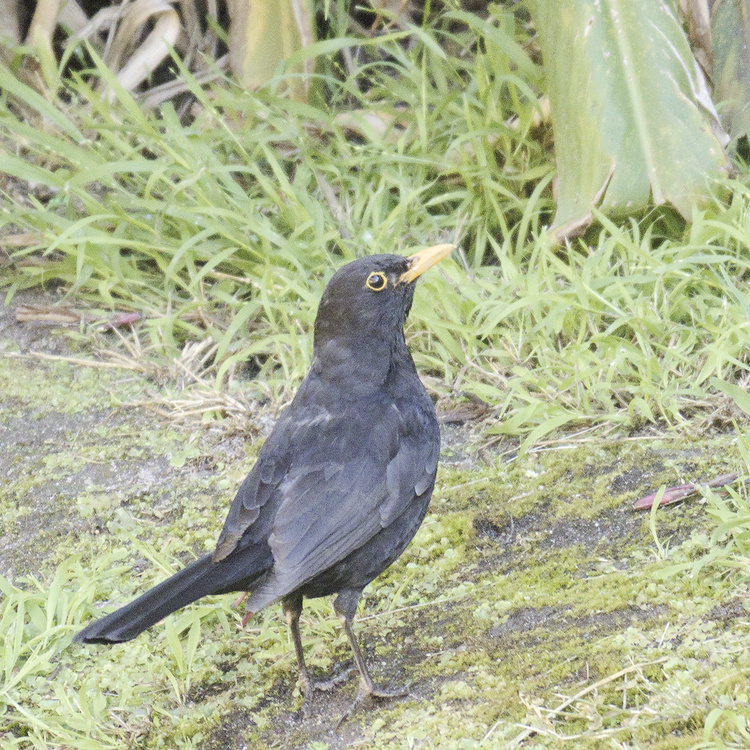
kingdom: Animalia
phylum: Chordata
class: Aves
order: Passeriformes
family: Turdidae
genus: Turdus
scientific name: Turdus merula
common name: Common blackbird
